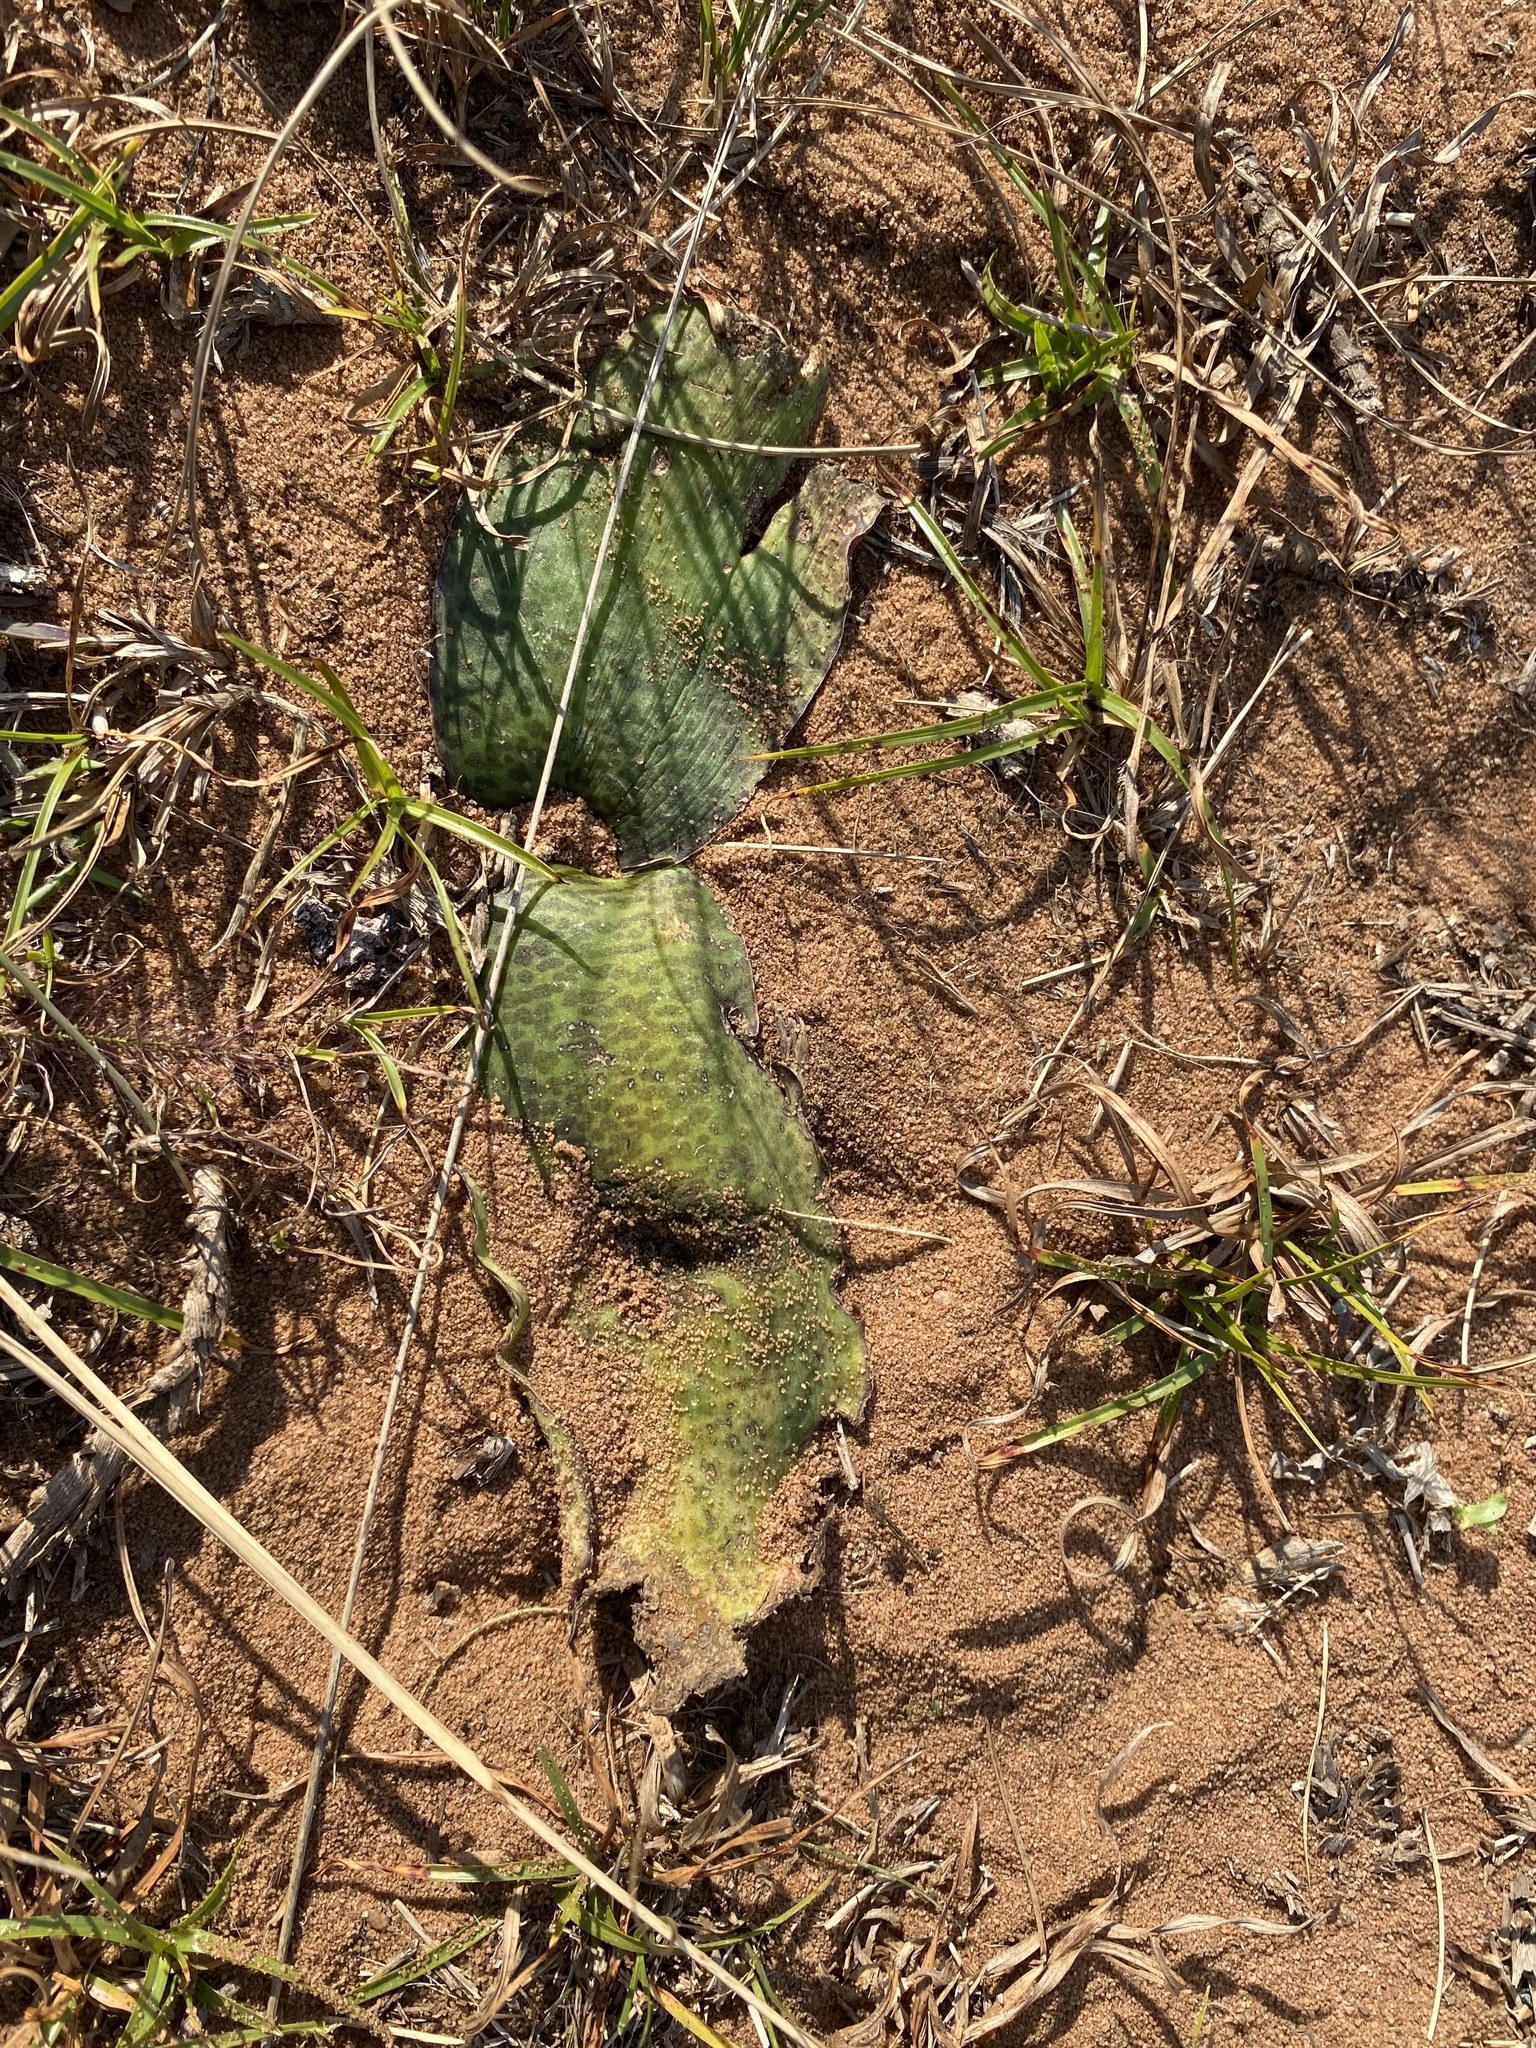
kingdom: Plantae
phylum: Tracheophyta
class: Liliopsida
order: Asparagales
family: Asparagaceae
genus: Ledebouria
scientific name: Ledebouria ovatifolia
